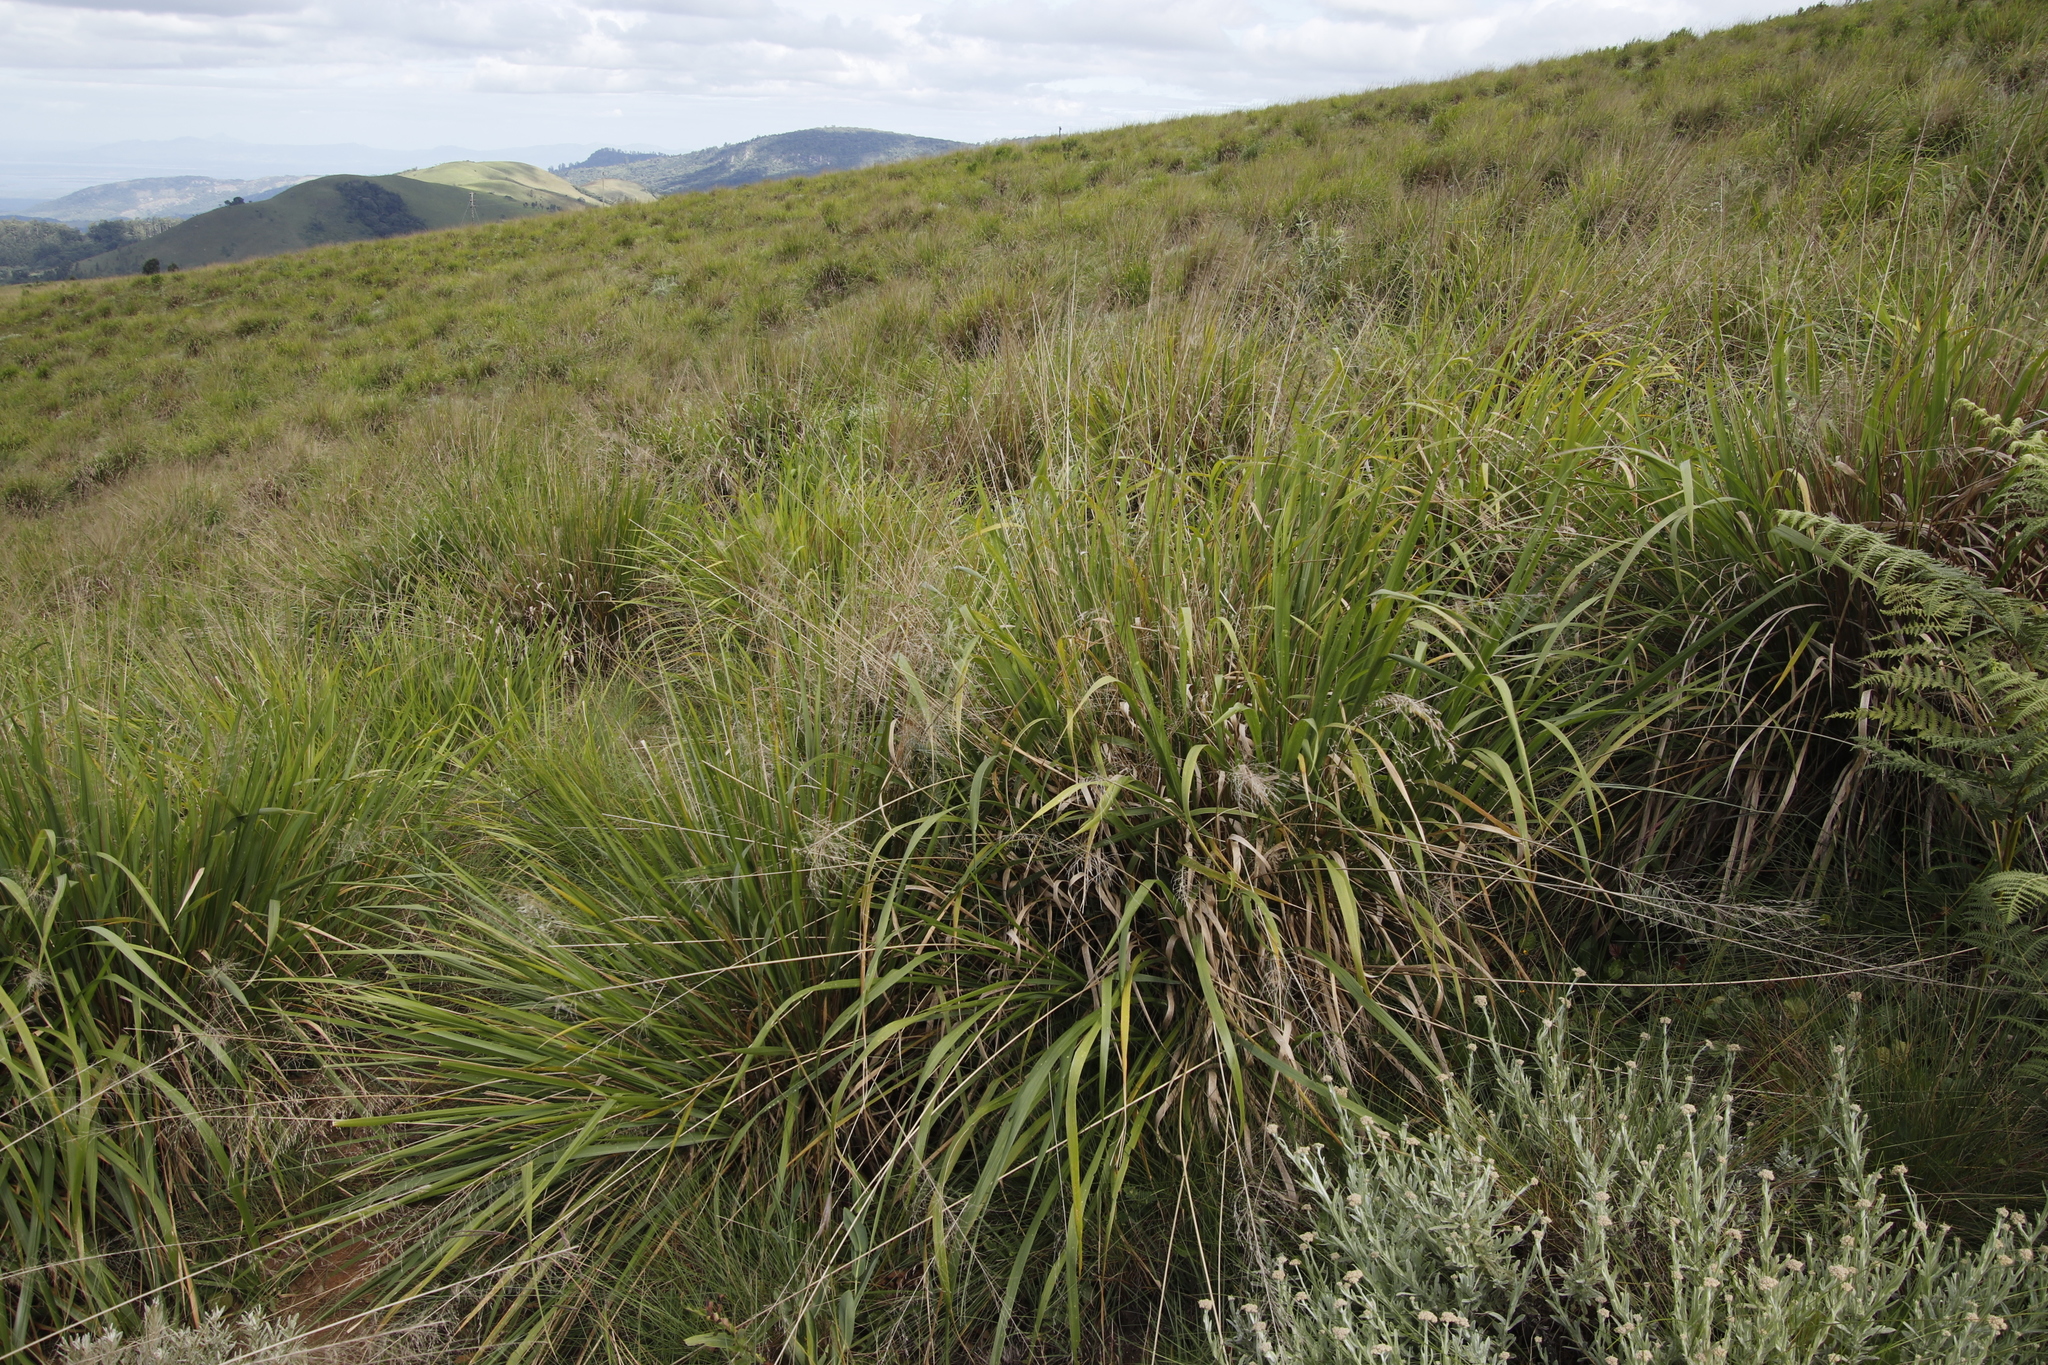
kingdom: Plantae
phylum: Tracheophyta
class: Liliopsida
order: Poales
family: Poaceae
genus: Eragrostis
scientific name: Eragrostis acraea
